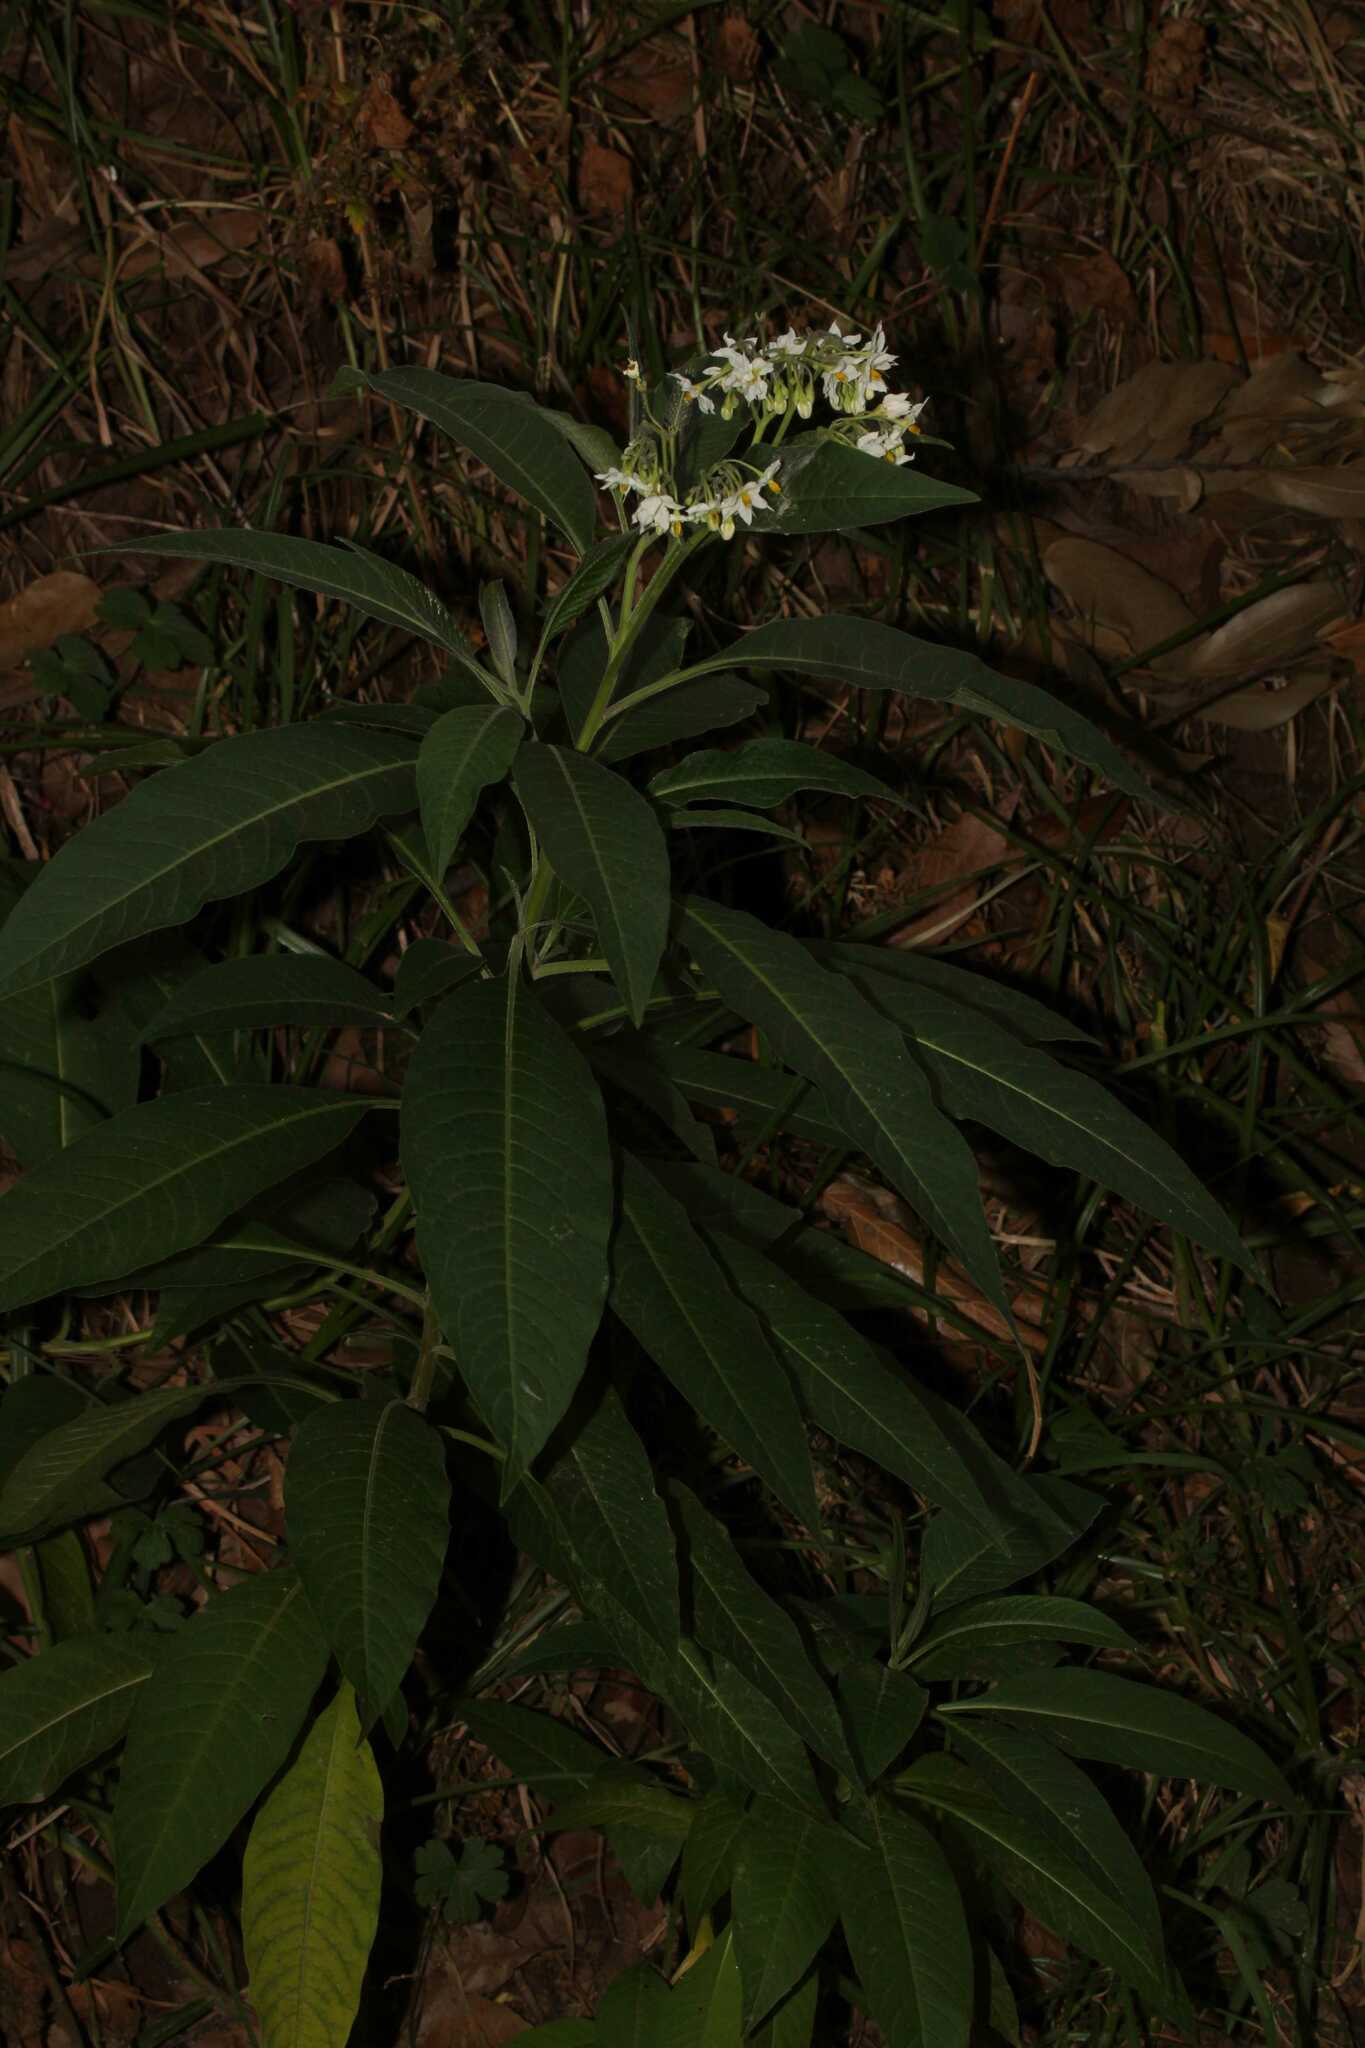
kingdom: Plantae
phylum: Tracheophyta
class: Magnoliopsida
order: Solanales
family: Solanaceae
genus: Solanum
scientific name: Solanum pubigerum
